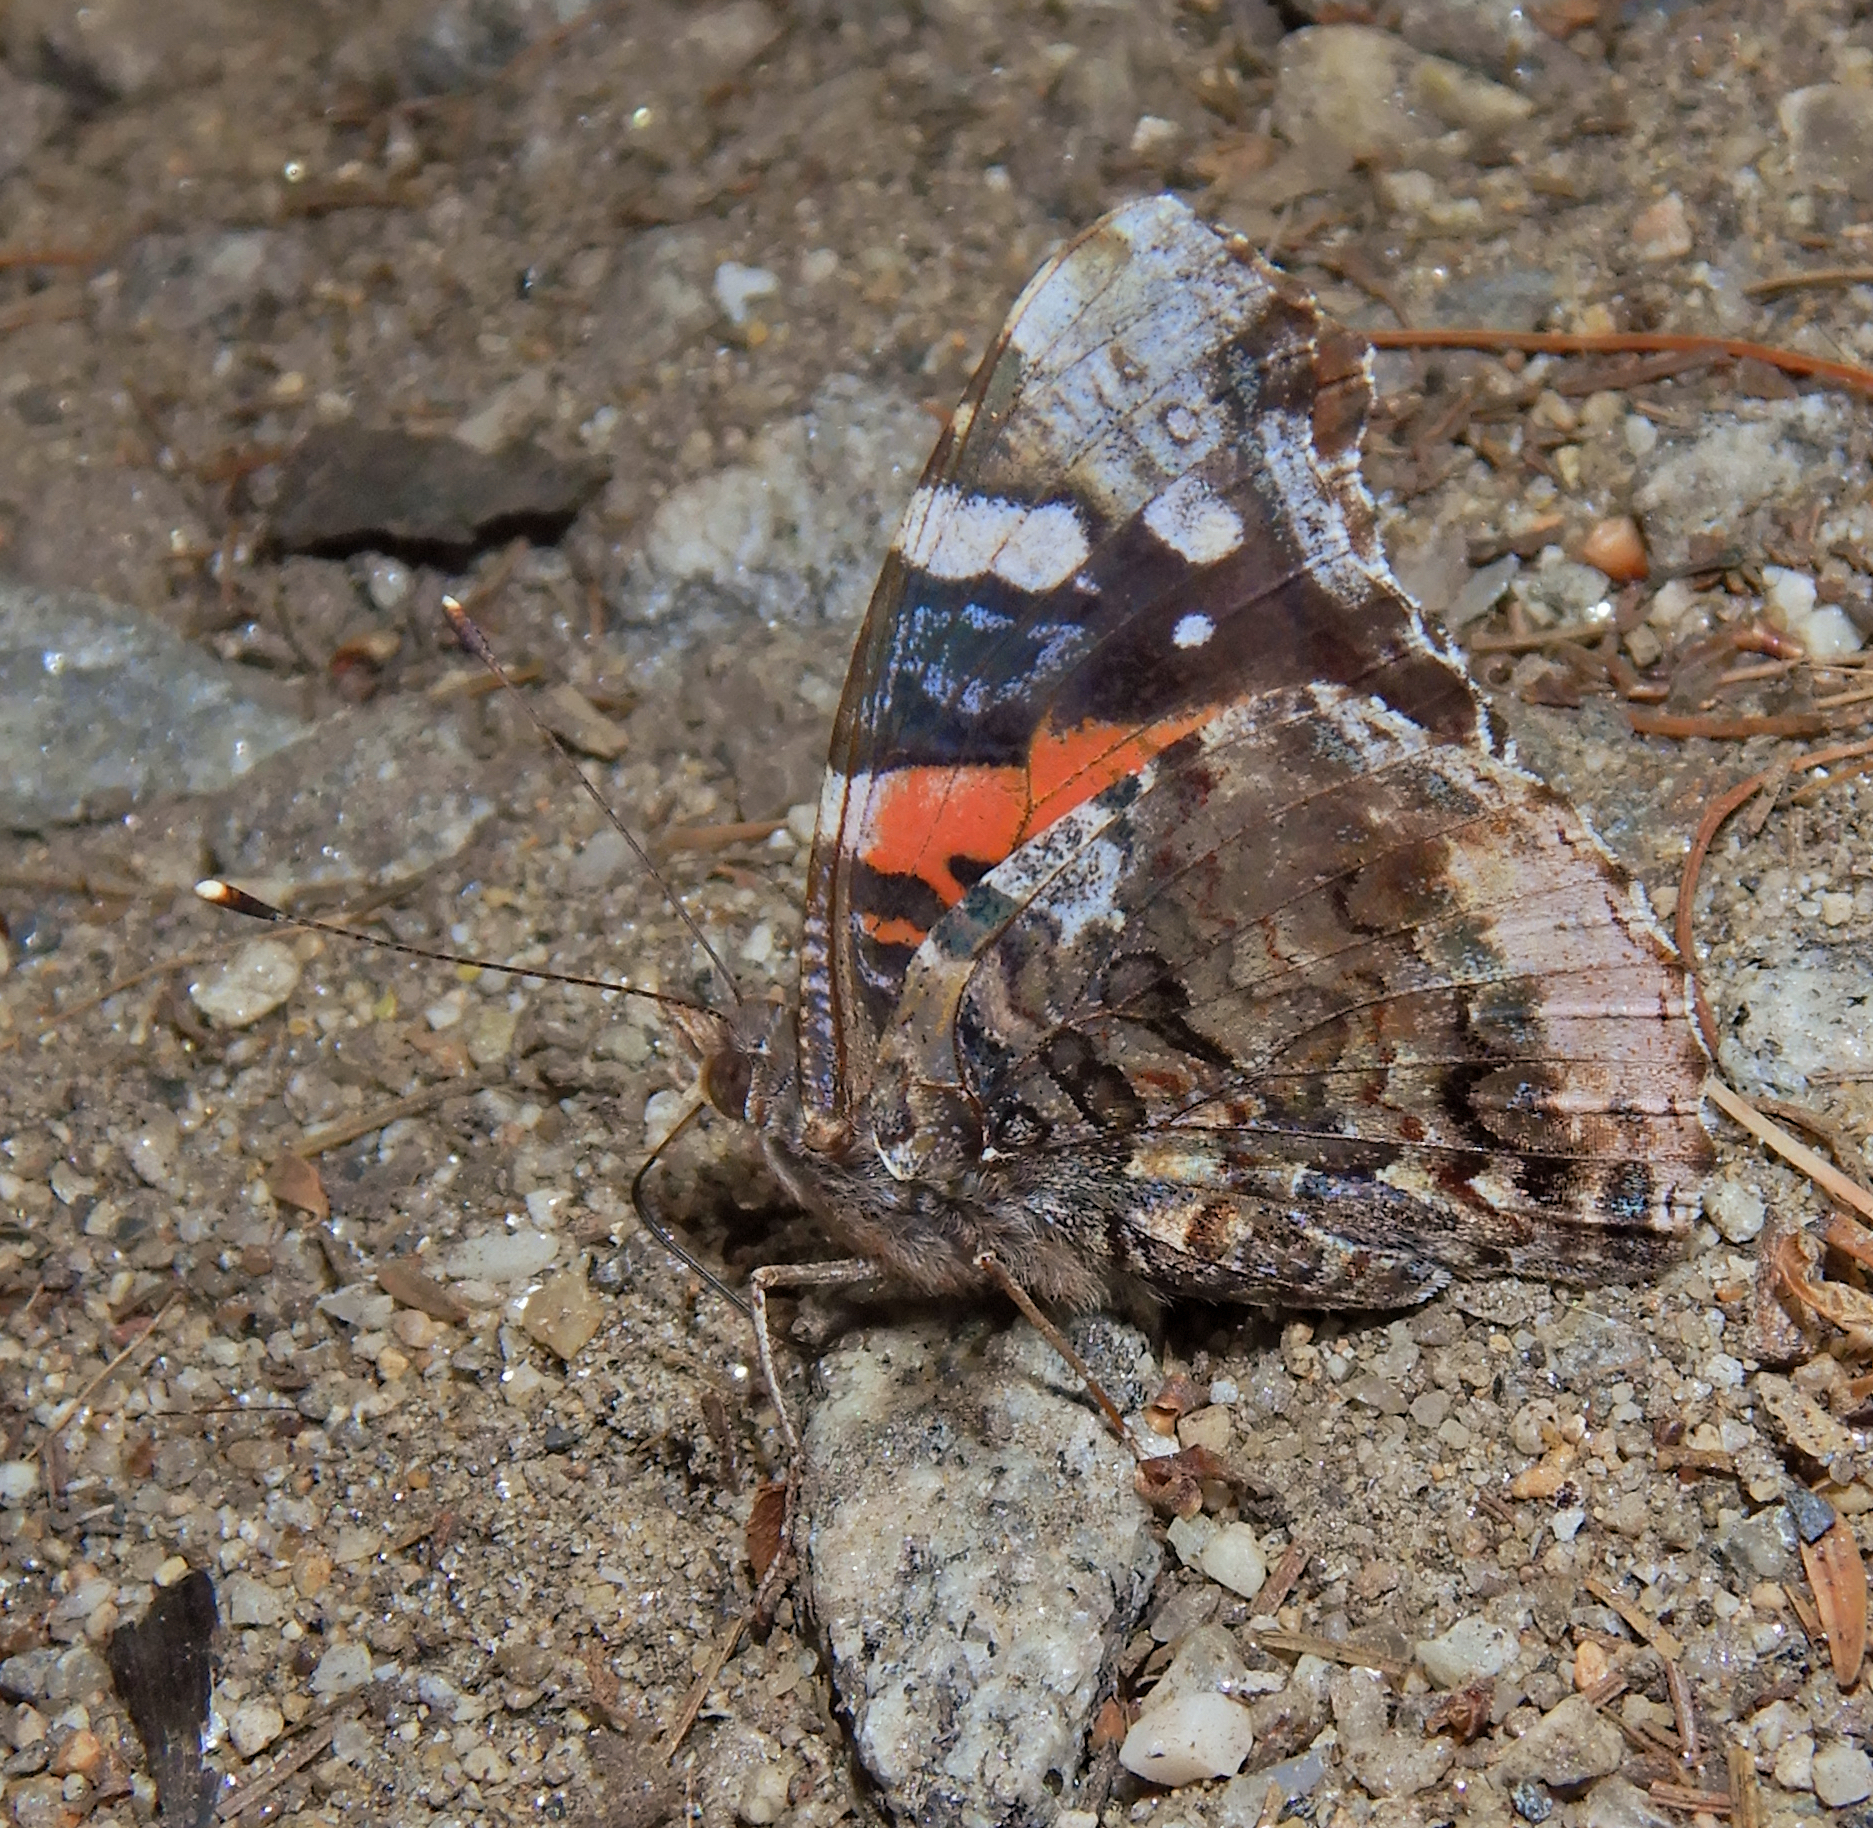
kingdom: Animalia
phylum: Arthropoda
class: Insecta
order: Lepidoptera
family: Nymphalidae
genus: Vanessa
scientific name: Vanessa atalanta
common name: Red admiral
